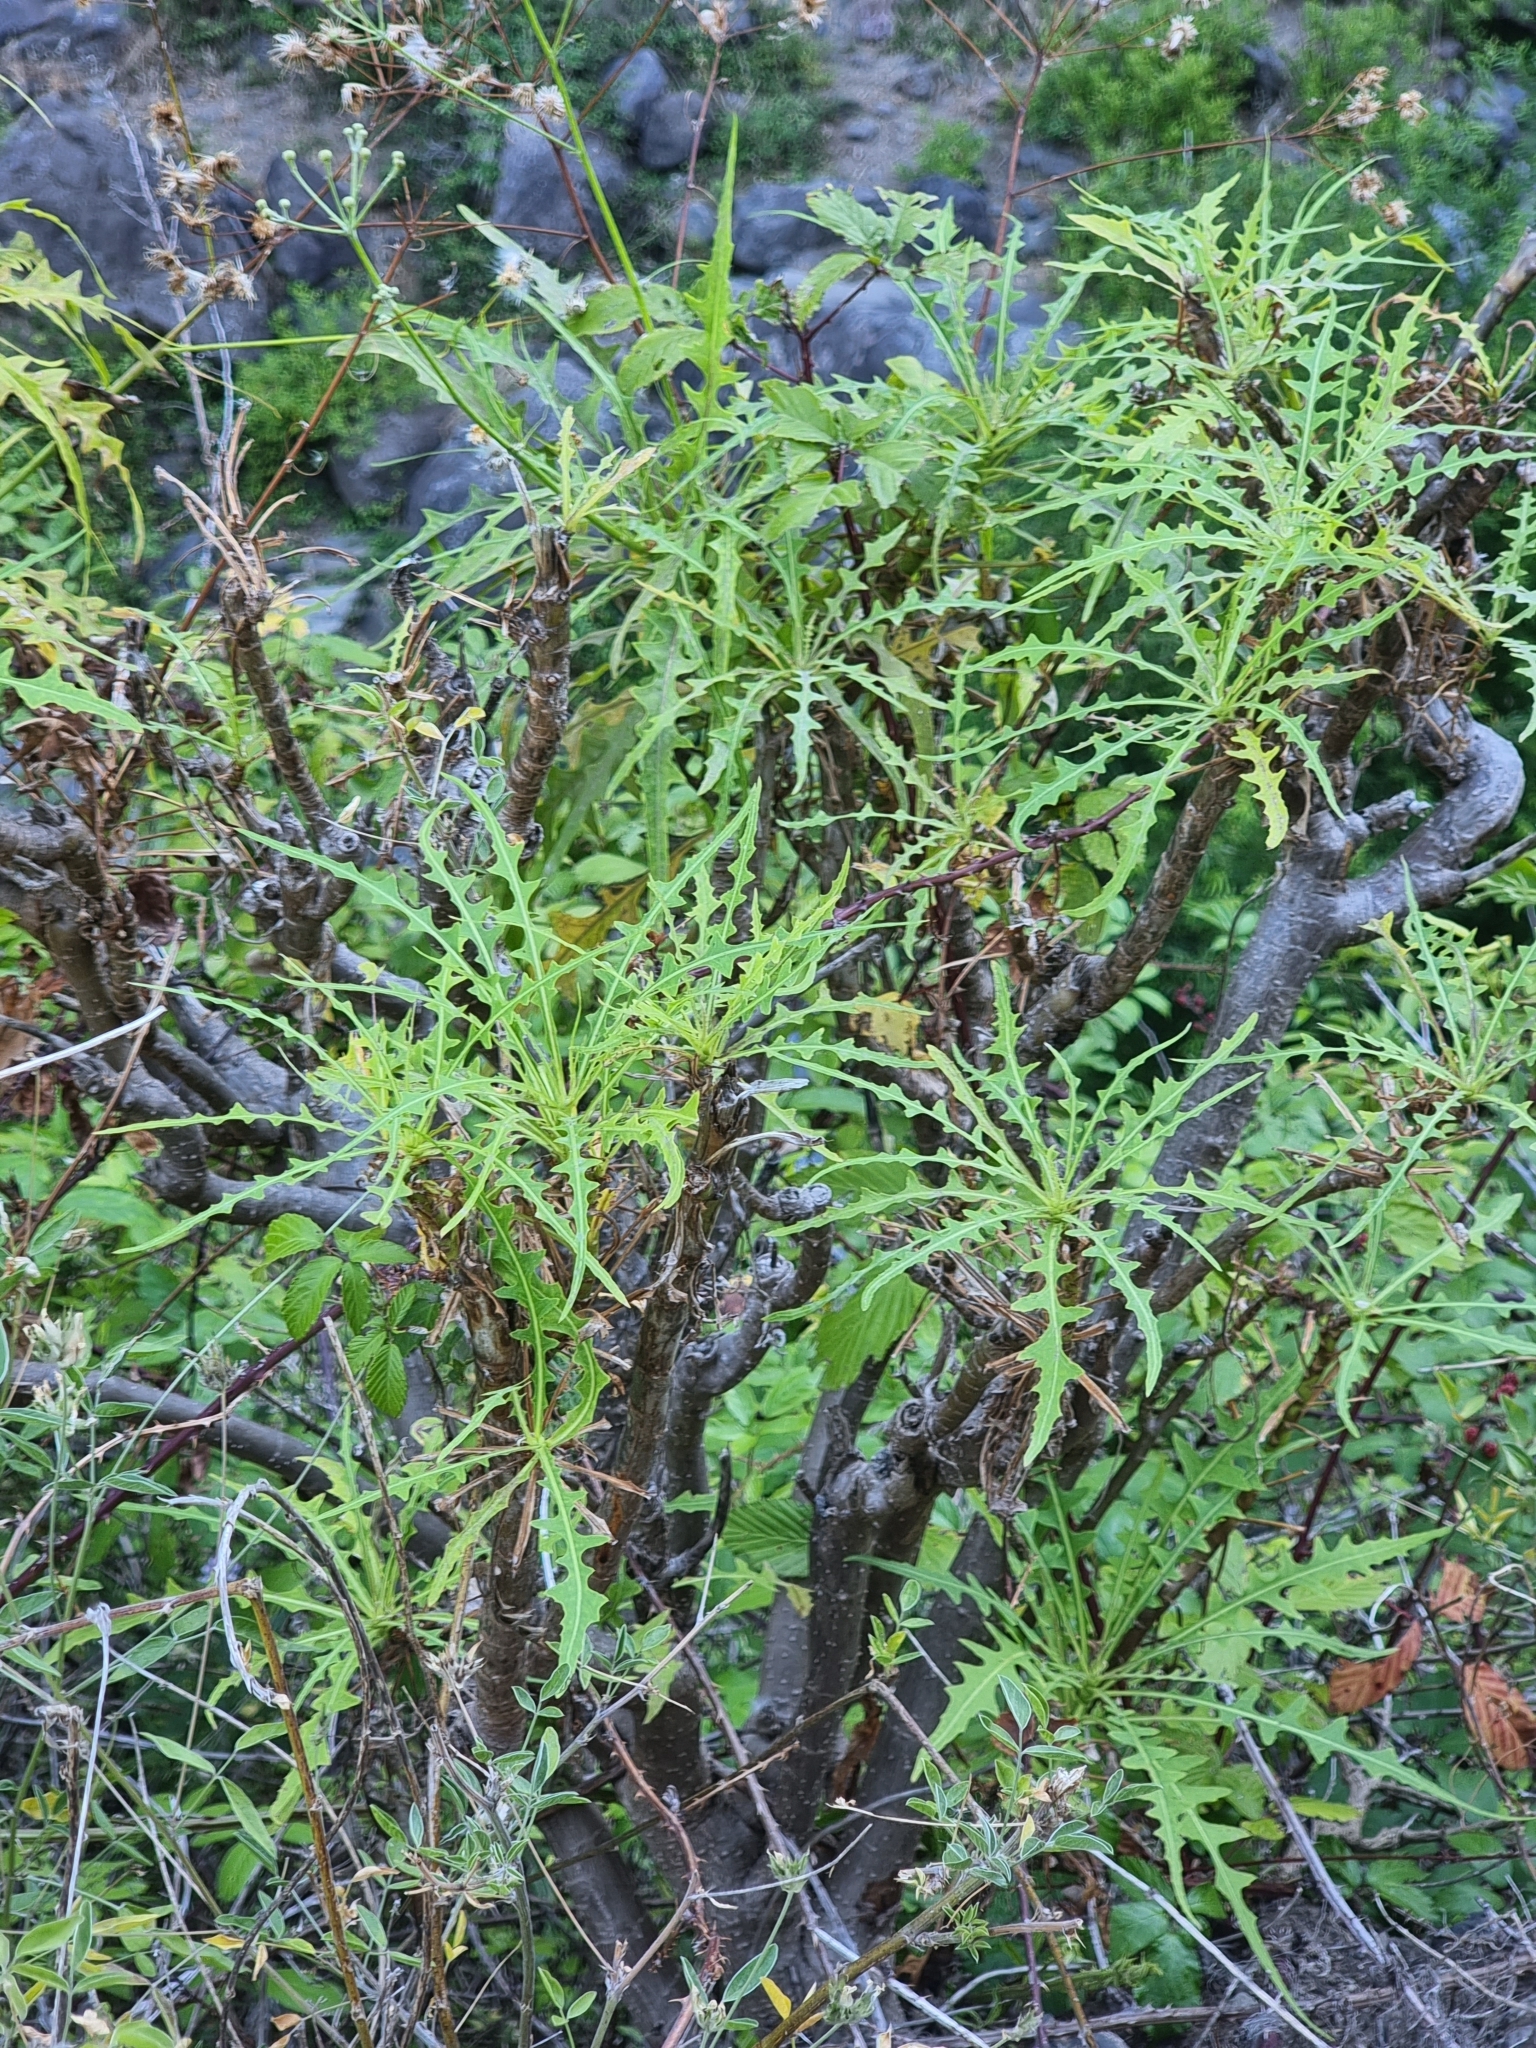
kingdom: Plantae
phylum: Tracheophyta
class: Magnoliopsida
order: Asterales
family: Asteraceae
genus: Sonchus
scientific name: Sonchus pinnatus
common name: Wing-leaved sow-thistle
